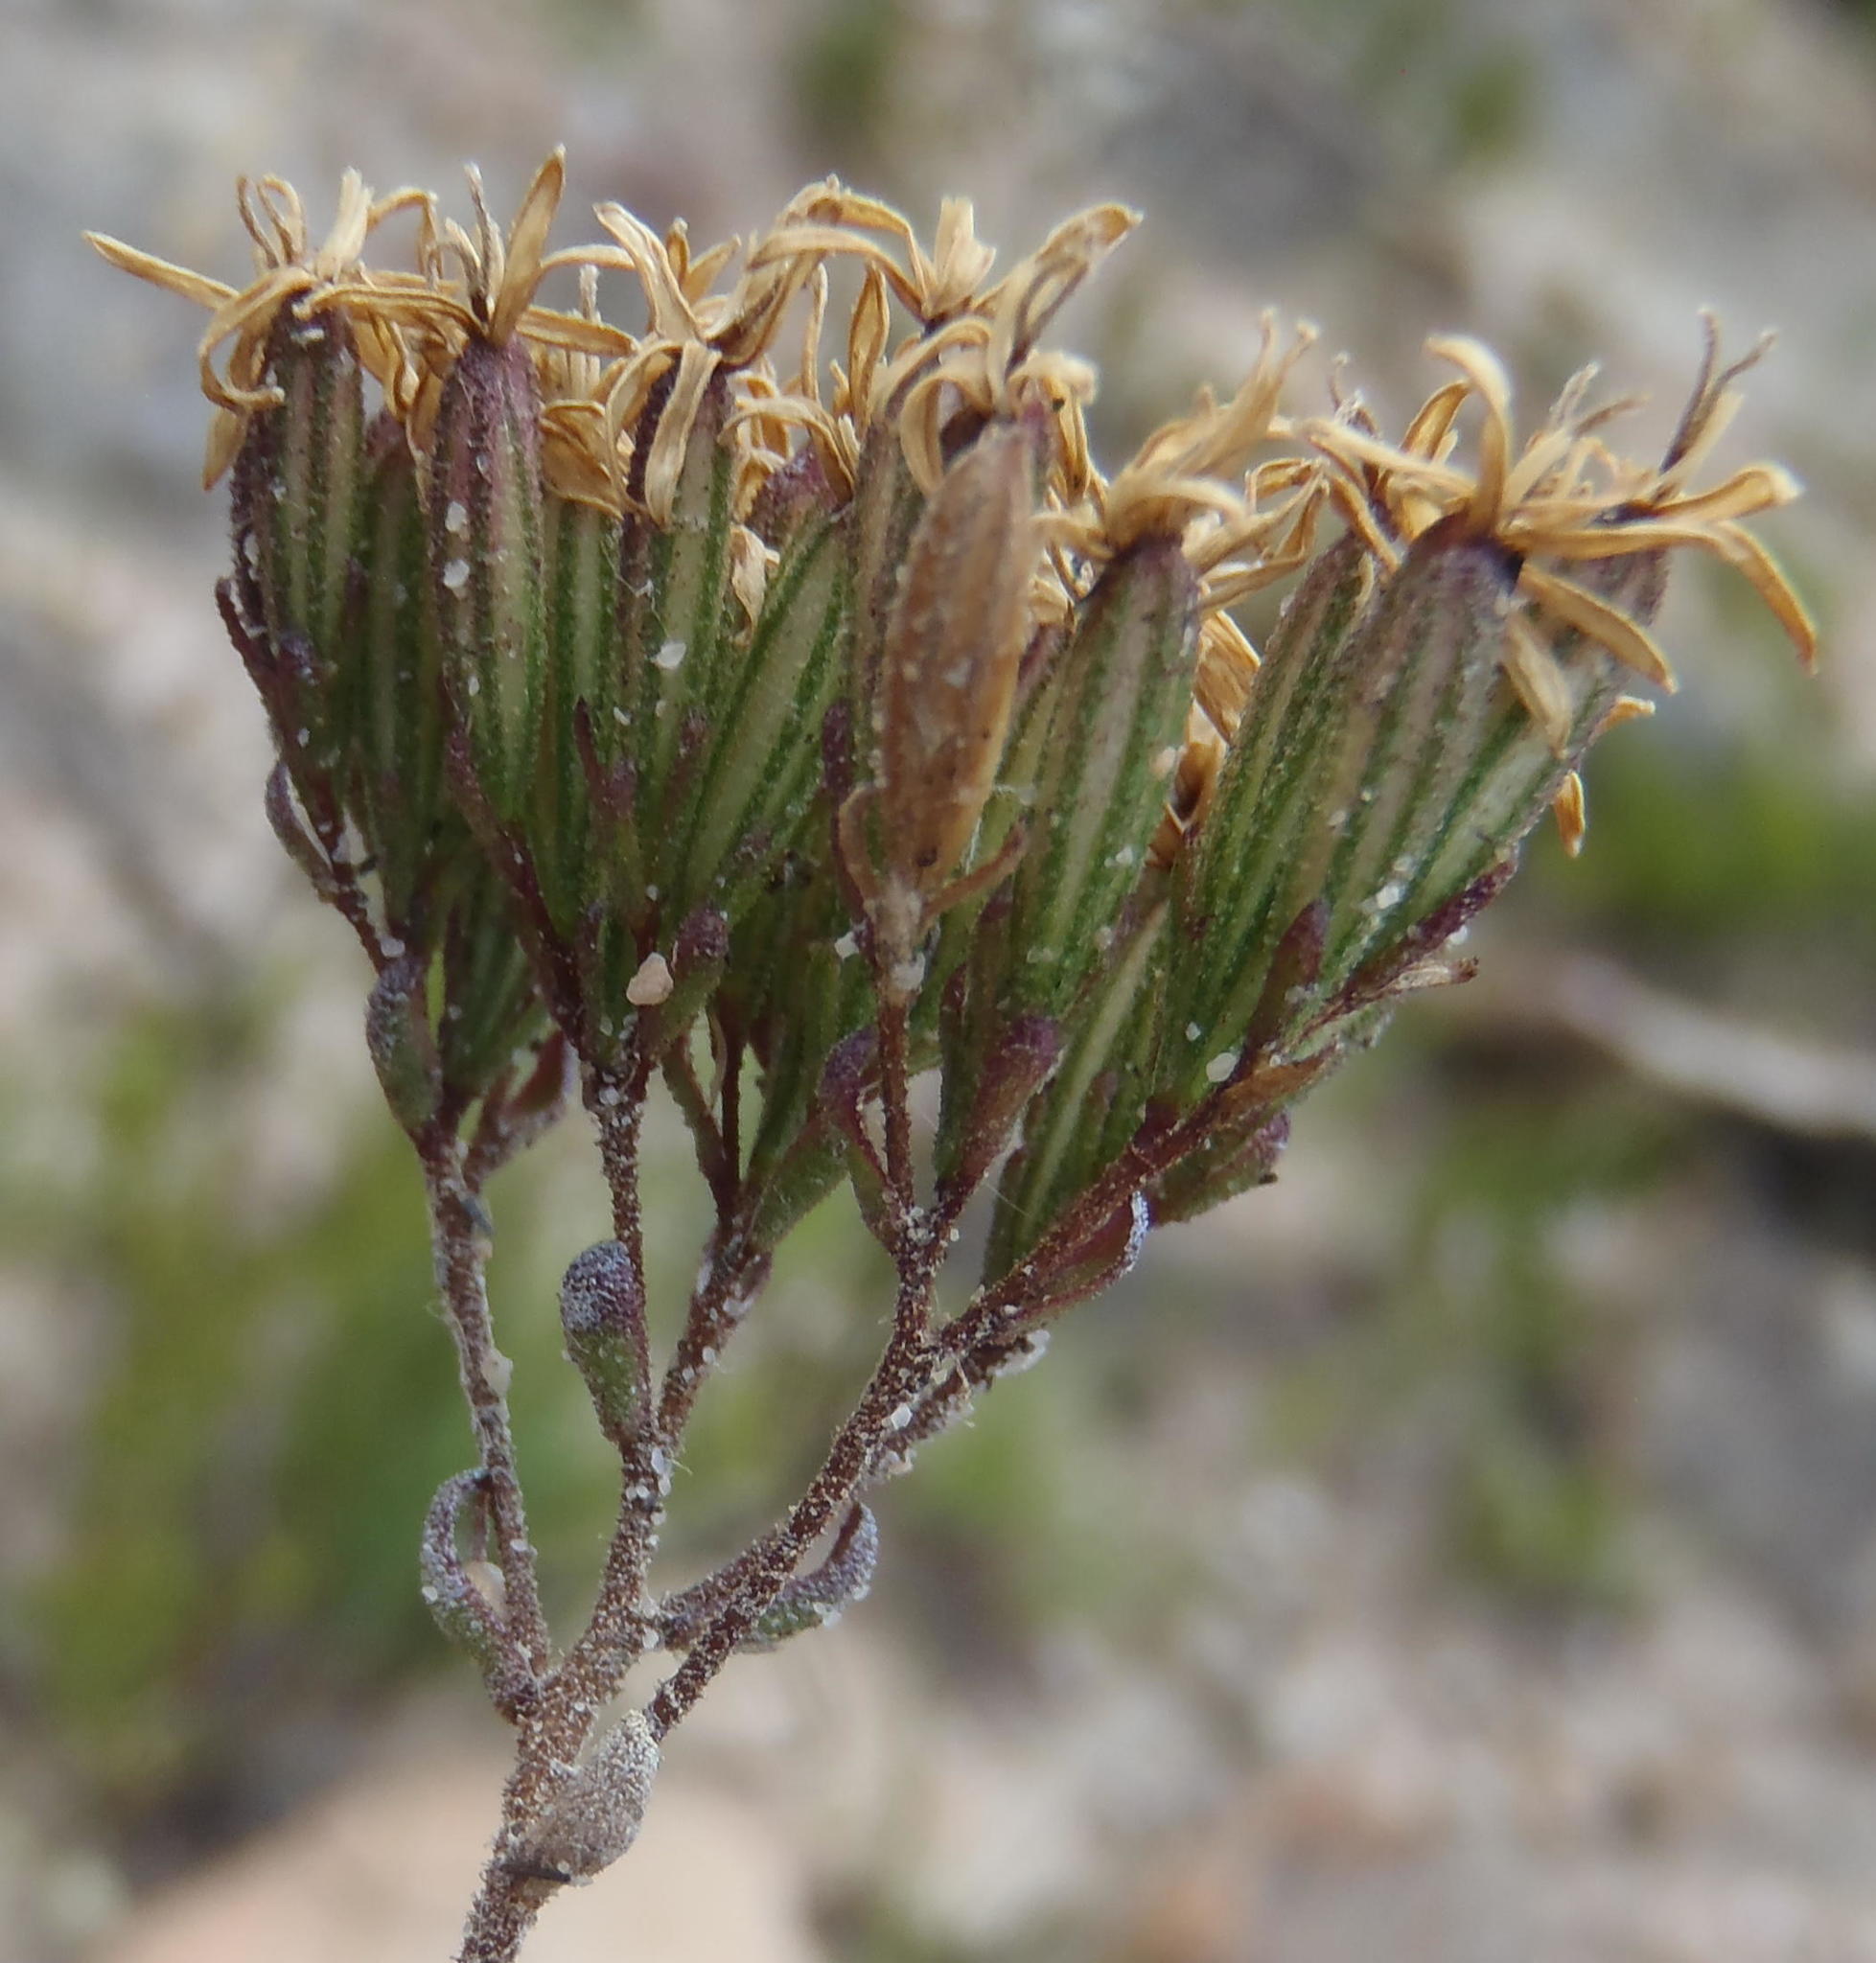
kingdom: Plantae
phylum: Tracheophyta
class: Magnoliopsida
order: Asterales
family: Asteraceae
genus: Corymbium
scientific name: Corymbium africanum
